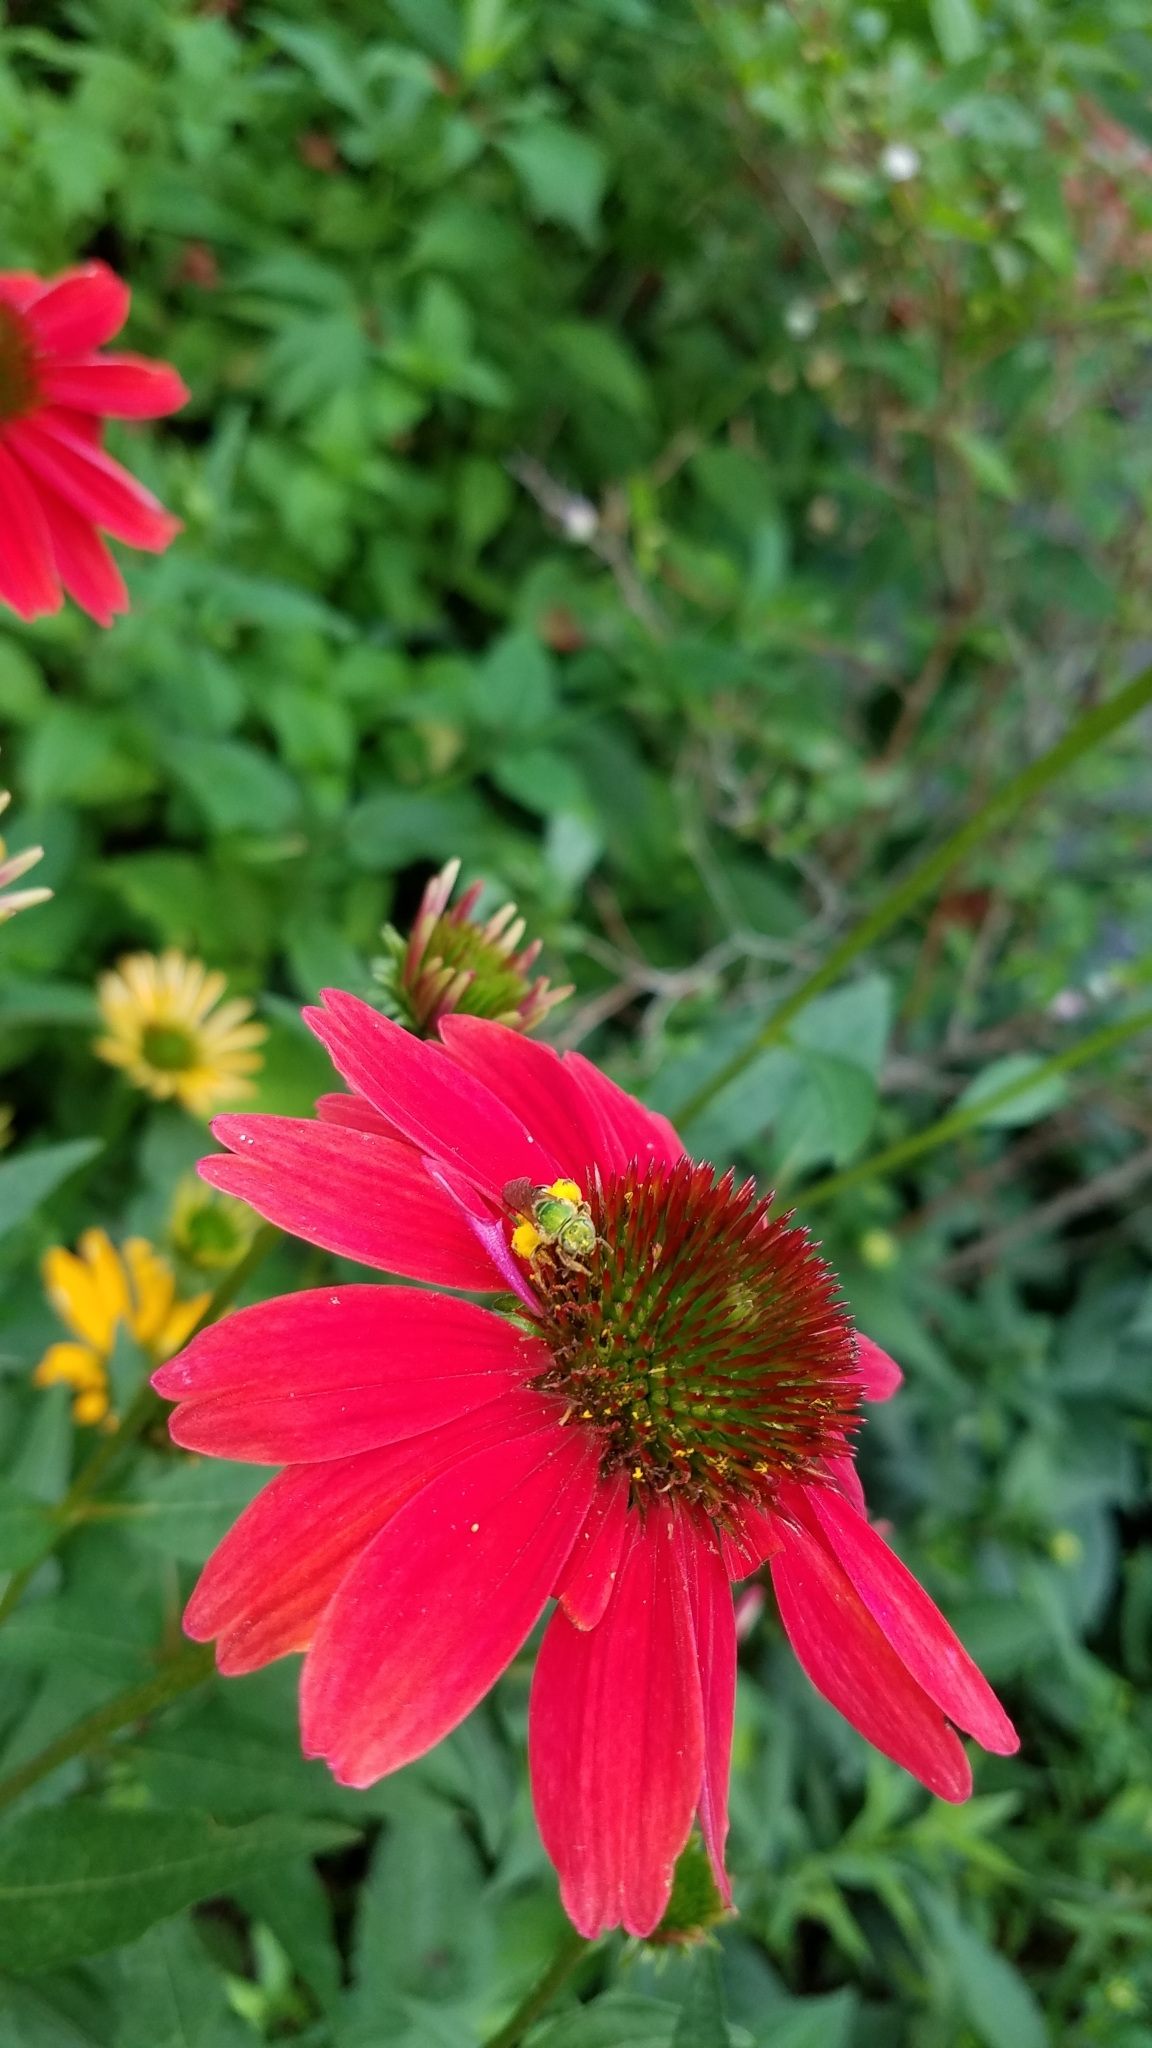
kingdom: Plantae
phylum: Tracheophyta
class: Magnoliopsida
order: Asterales
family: Asteraceae
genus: Echinacea
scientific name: Echinacea purpurea
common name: Broad-leaved purple coneflower
